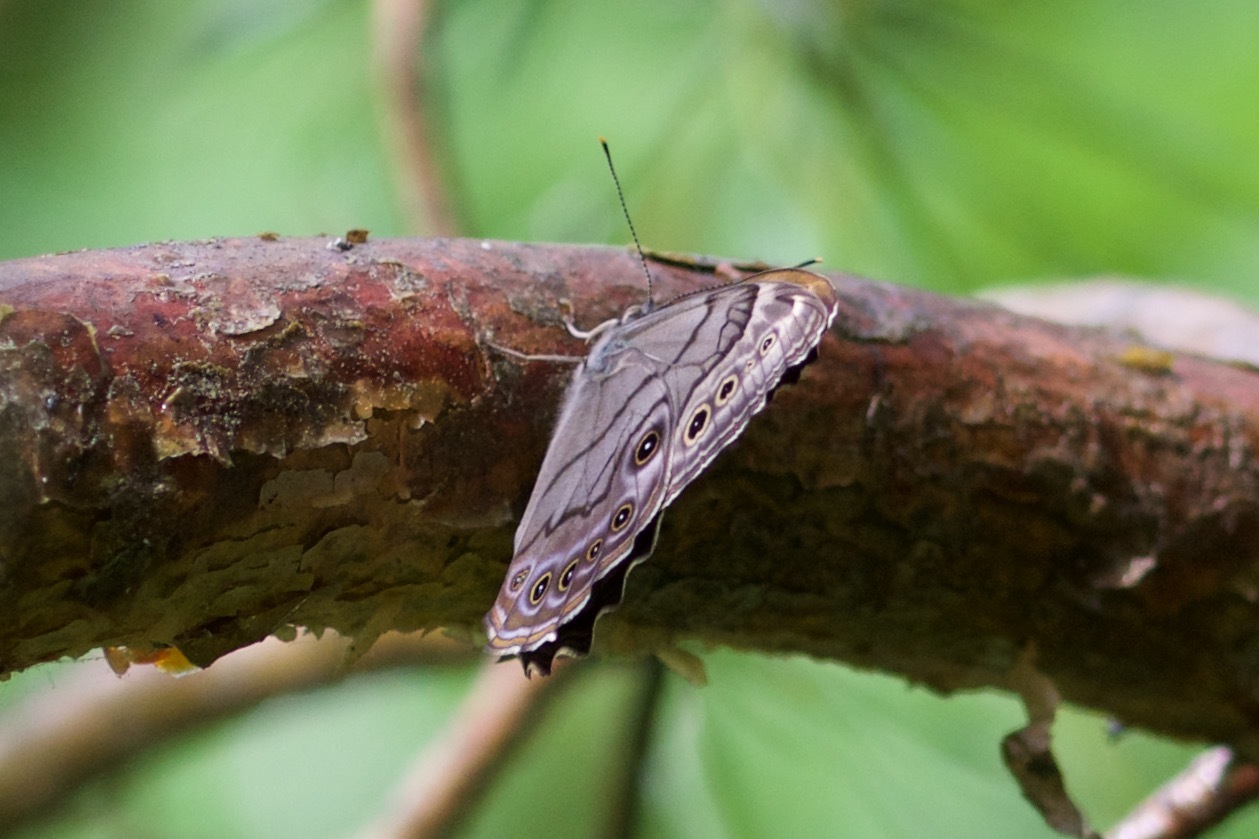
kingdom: Animalia
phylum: Arthropoda
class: Insecta
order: Lepidoptera
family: Nymphalidae
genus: Lethe
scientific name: Lethe anthedon
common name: Northern pearly-eye
